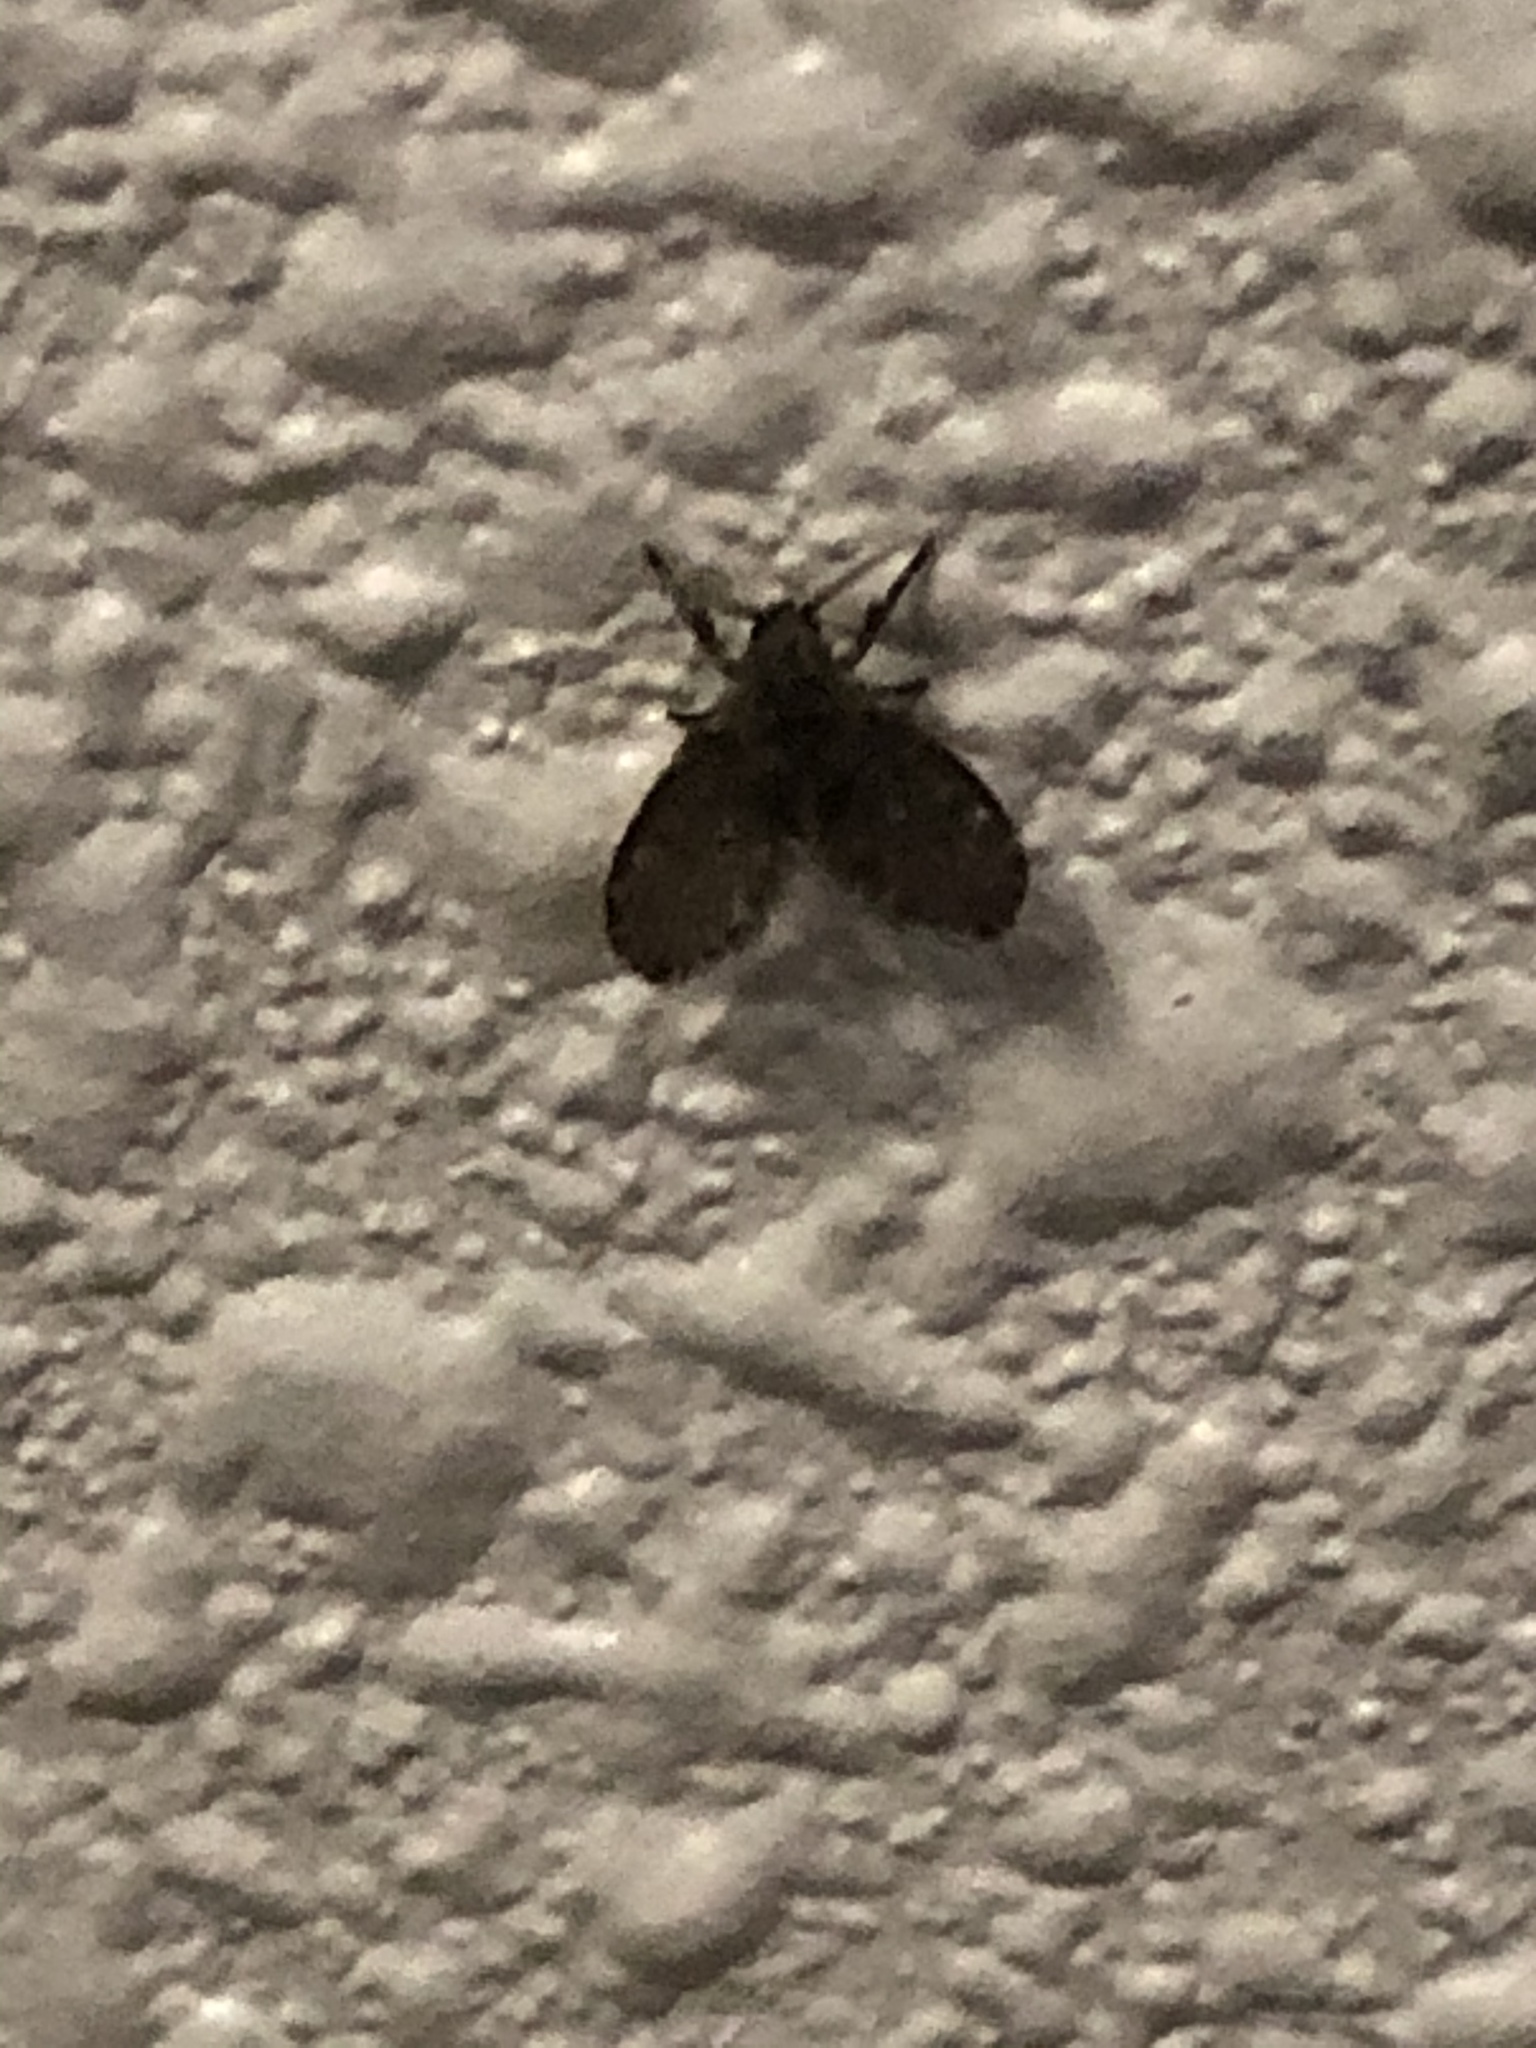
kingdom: Animalia
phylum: Arthropoda
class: Insecta
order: Diptera
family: Psychodidae
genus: Clogmia
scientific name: Clogmia albipunctatus
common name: White-spotted moth fly
